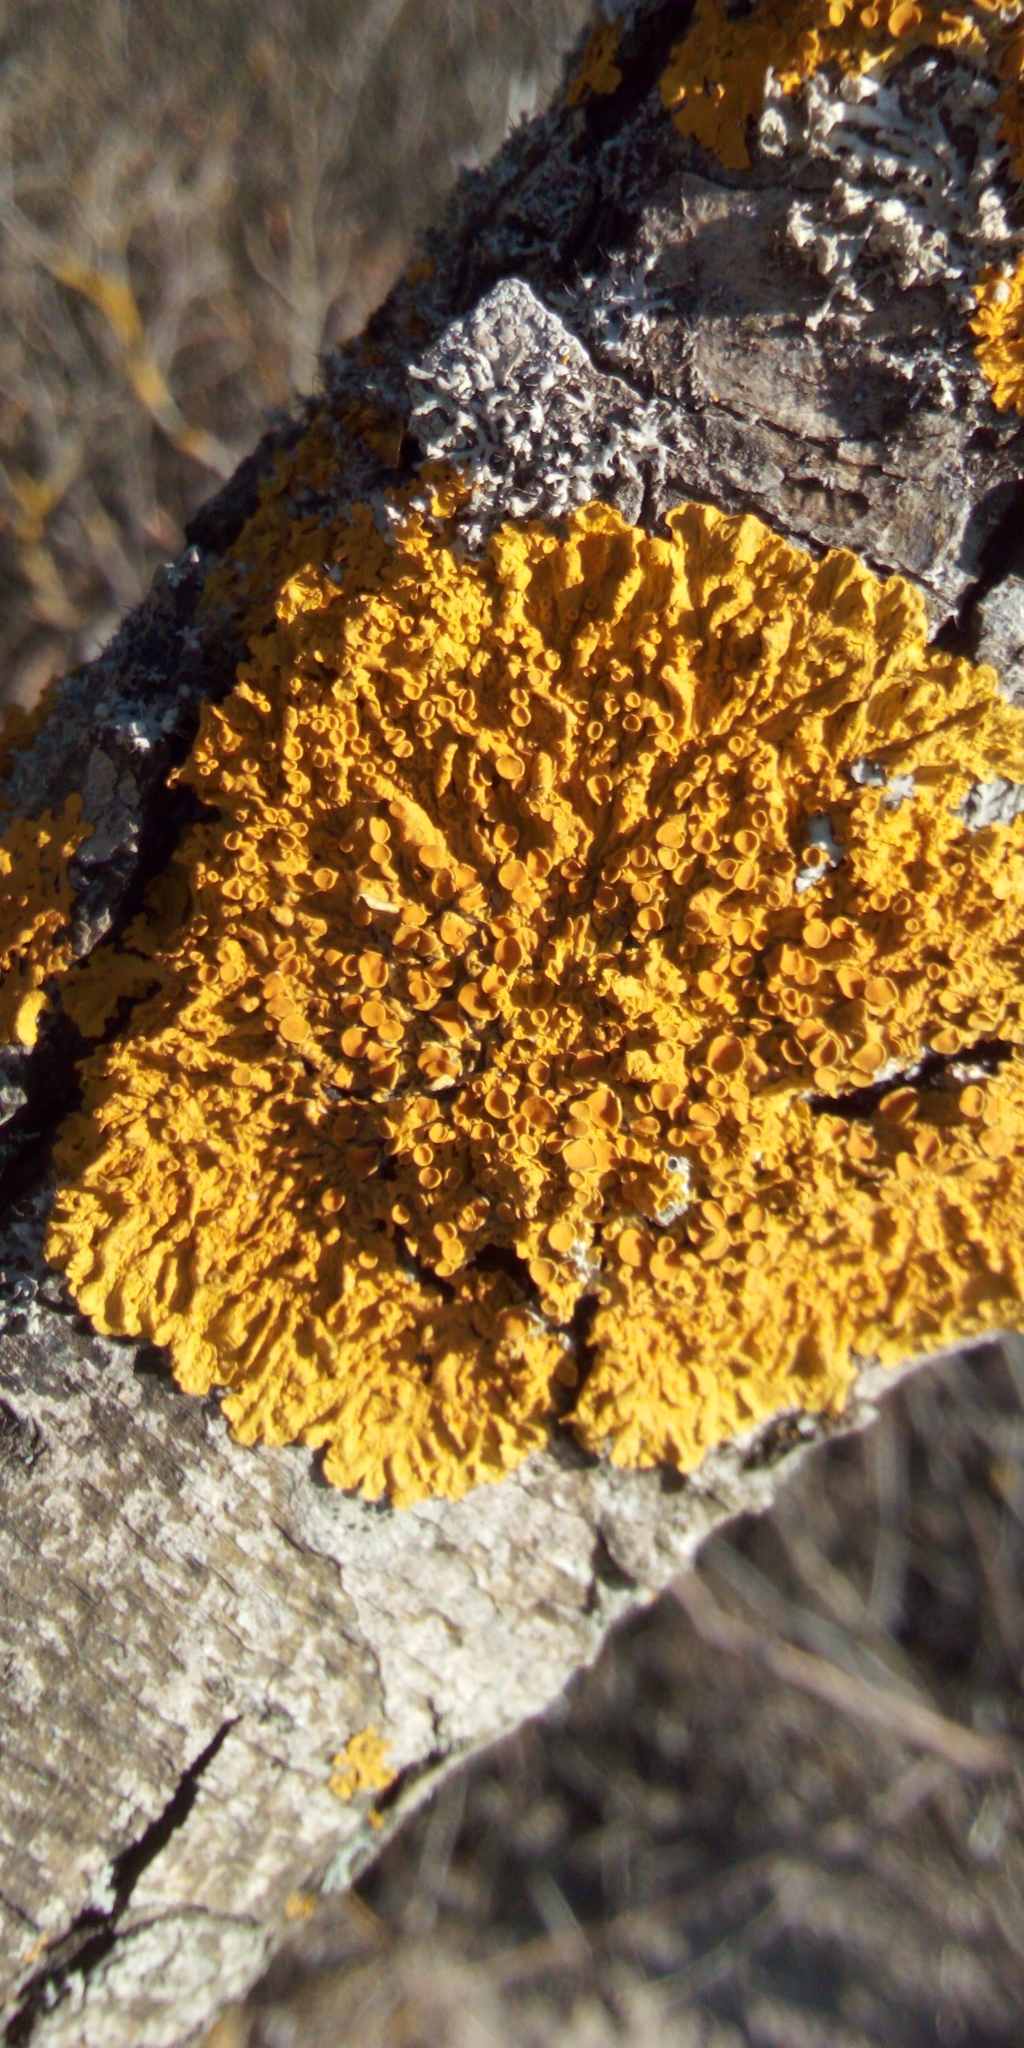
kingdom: Fungi
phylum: Ascomycota
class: Lecanoromycetes
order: Teloschistales
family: Teloschistaceae
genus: Xanthoria
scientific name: Xanthoria parietina
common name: Common orange lichen
